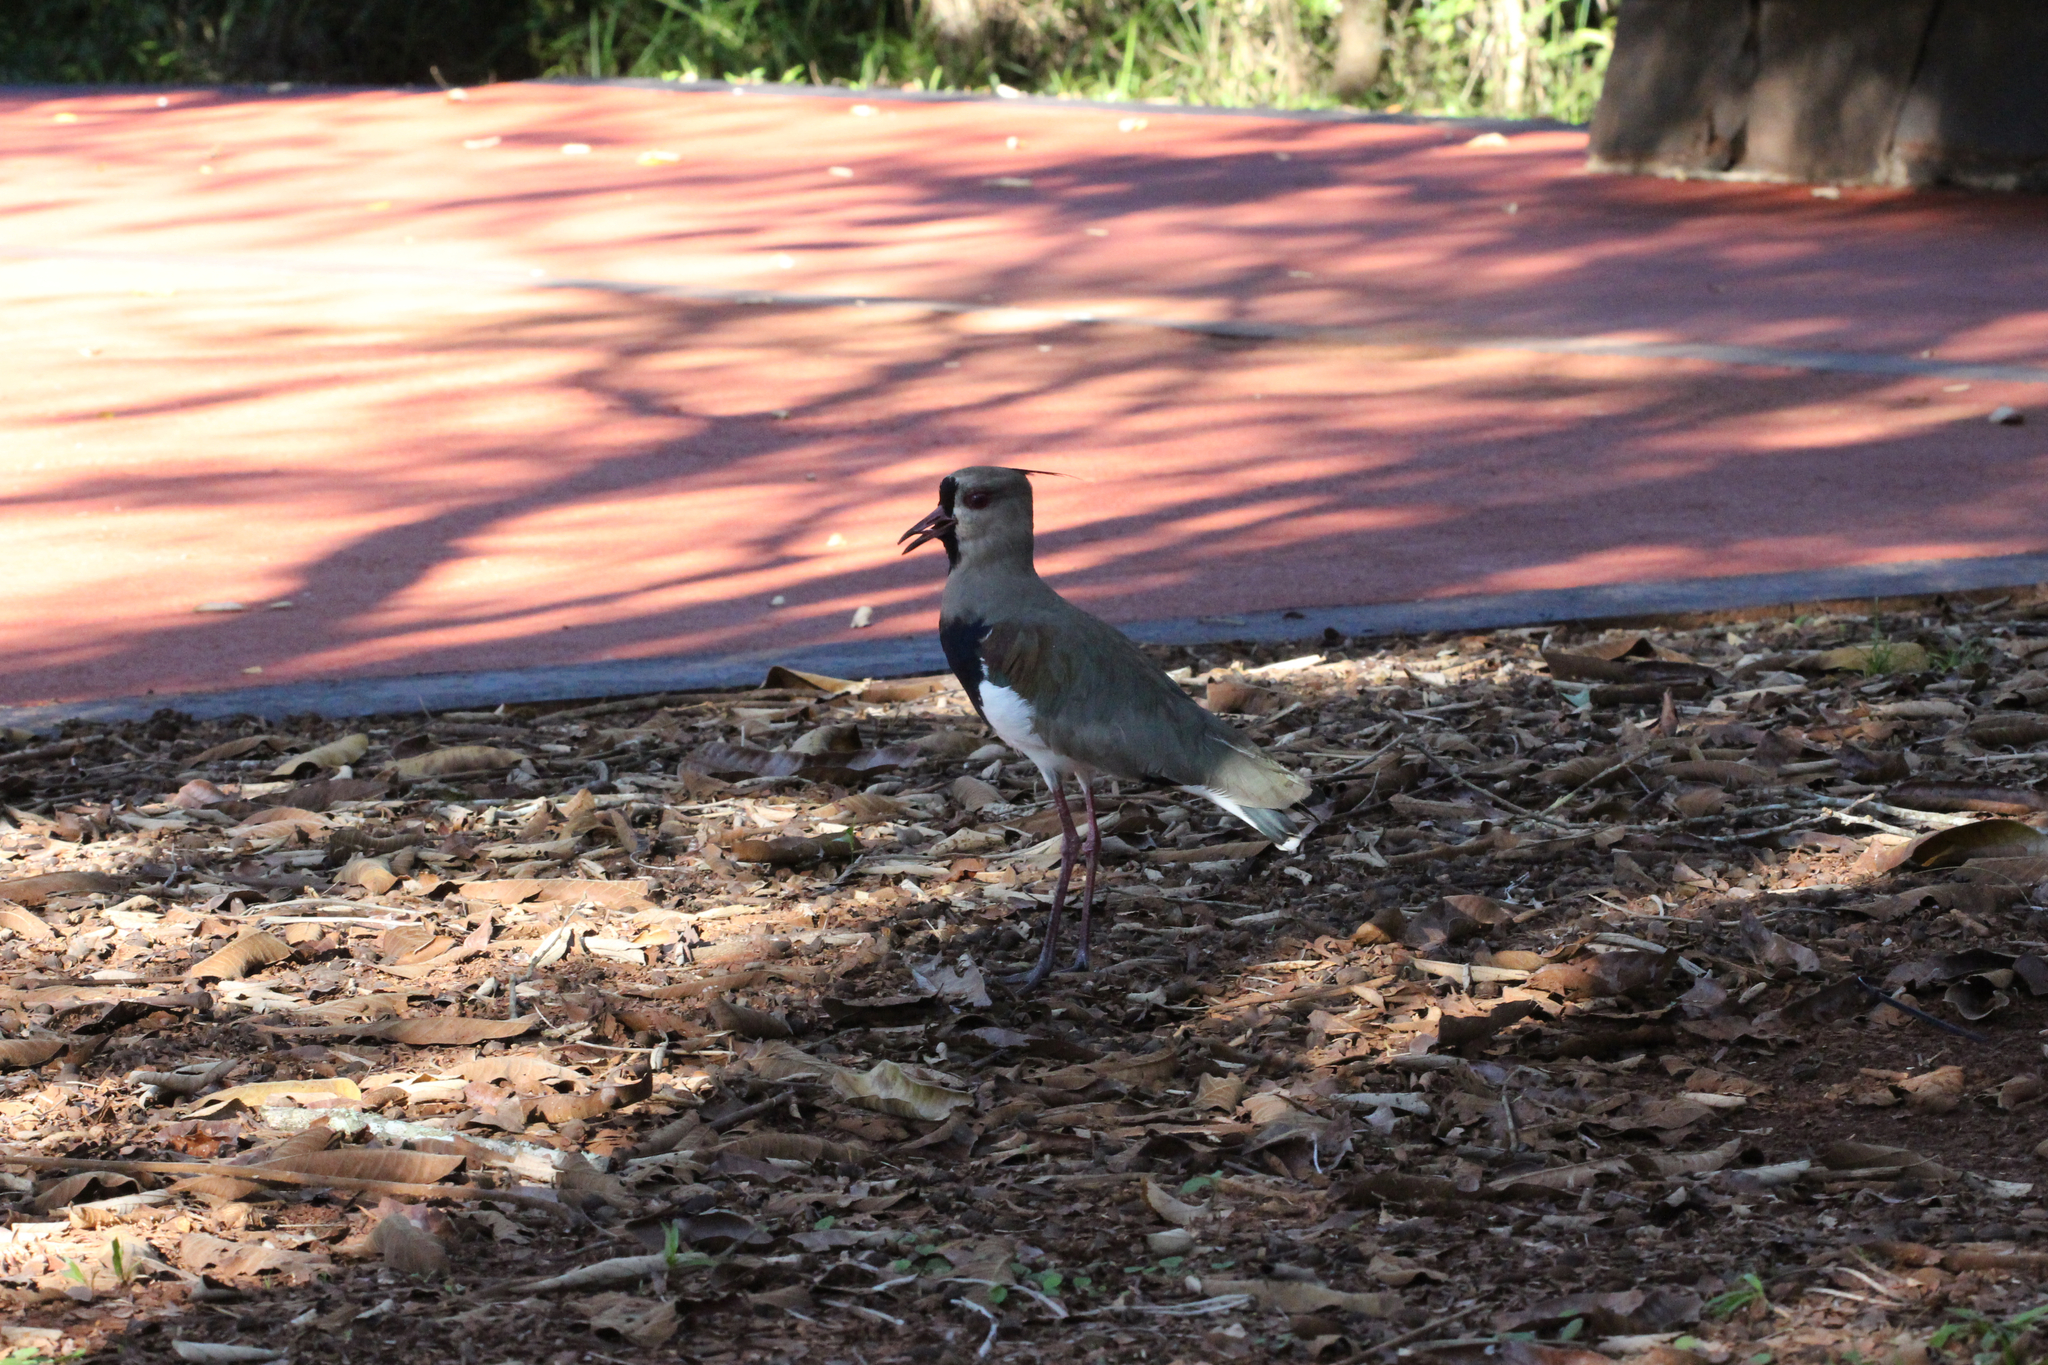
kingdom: Animalia
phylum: Chordata
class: Aves
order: Charadriiformes
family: Charadriidae
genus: Vanellus
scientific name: Vanellus chilensis
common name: Southern lapwing
